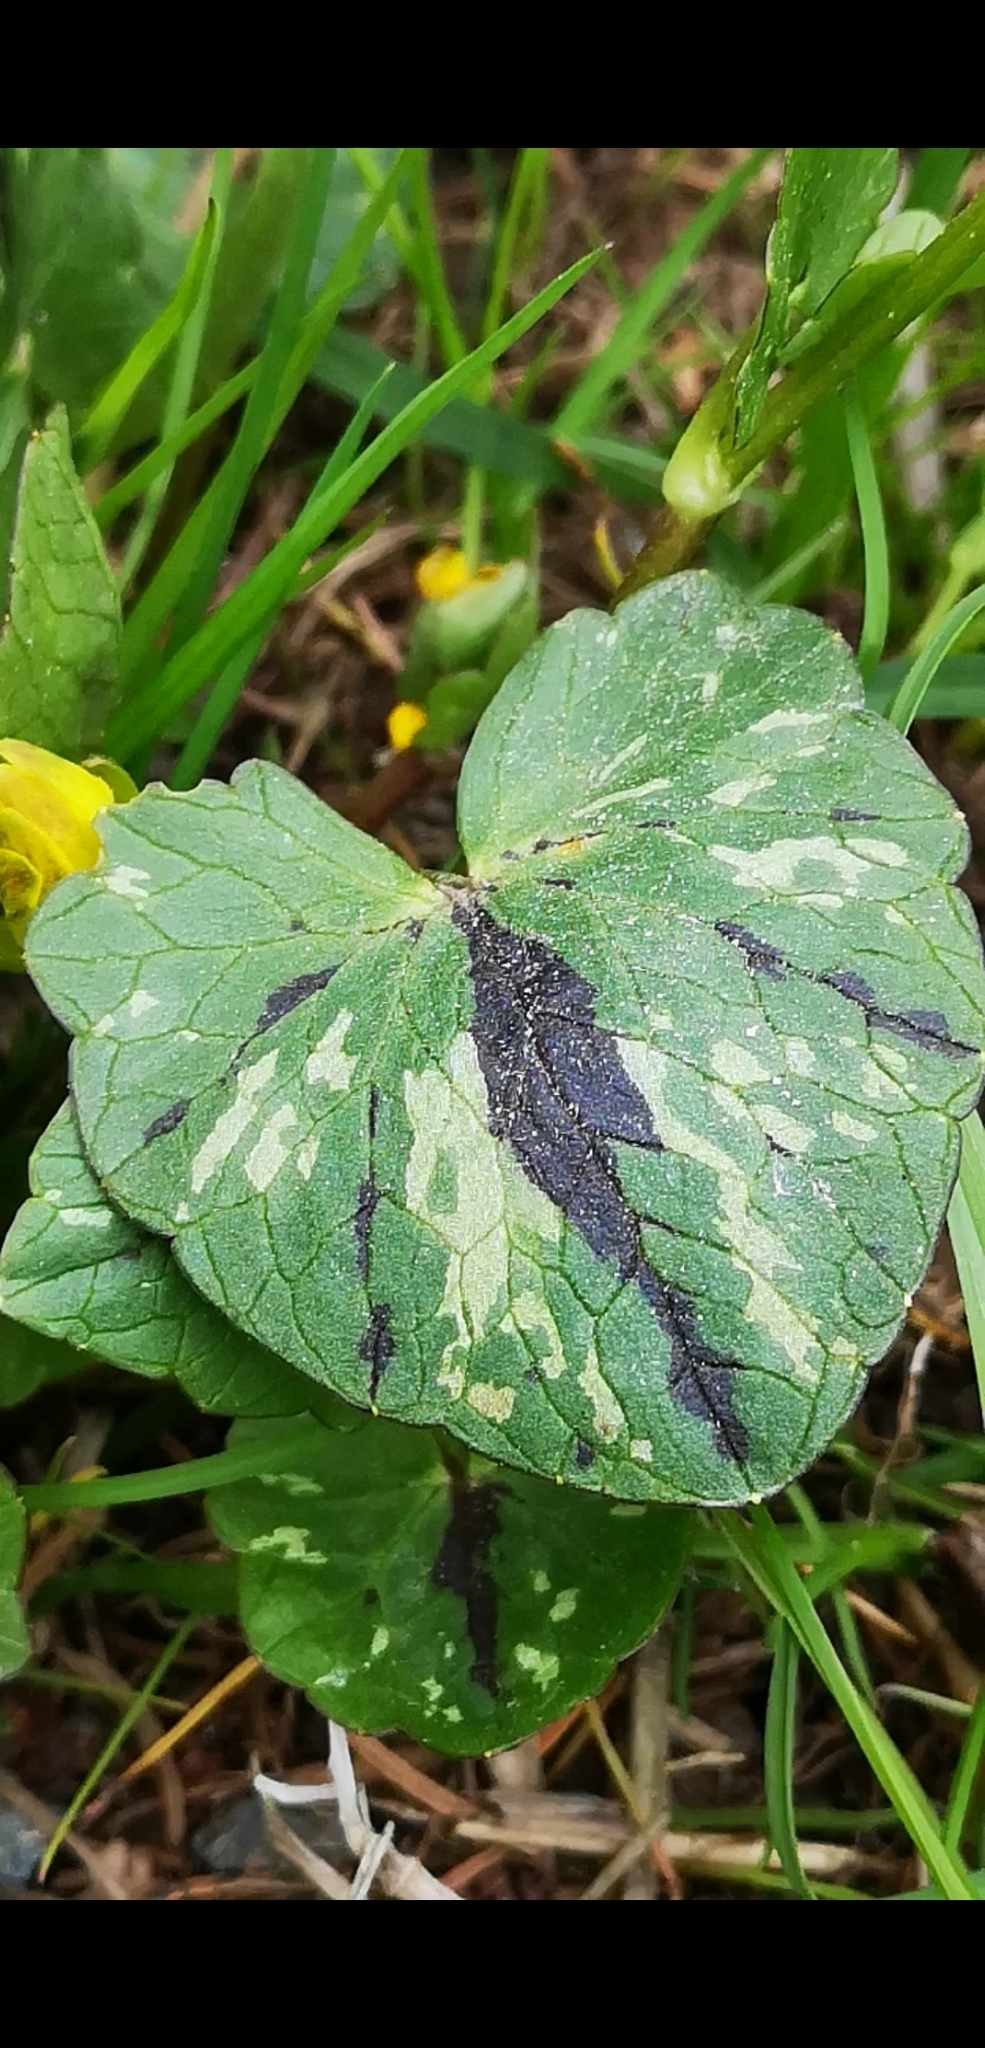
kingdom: Plantae
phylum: Tracheophyta
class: Magnoliopsida
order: Ranunculales
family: Ranunculaceae
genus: Ficaria
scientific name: Ficaria verna
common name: Lesser celandine
